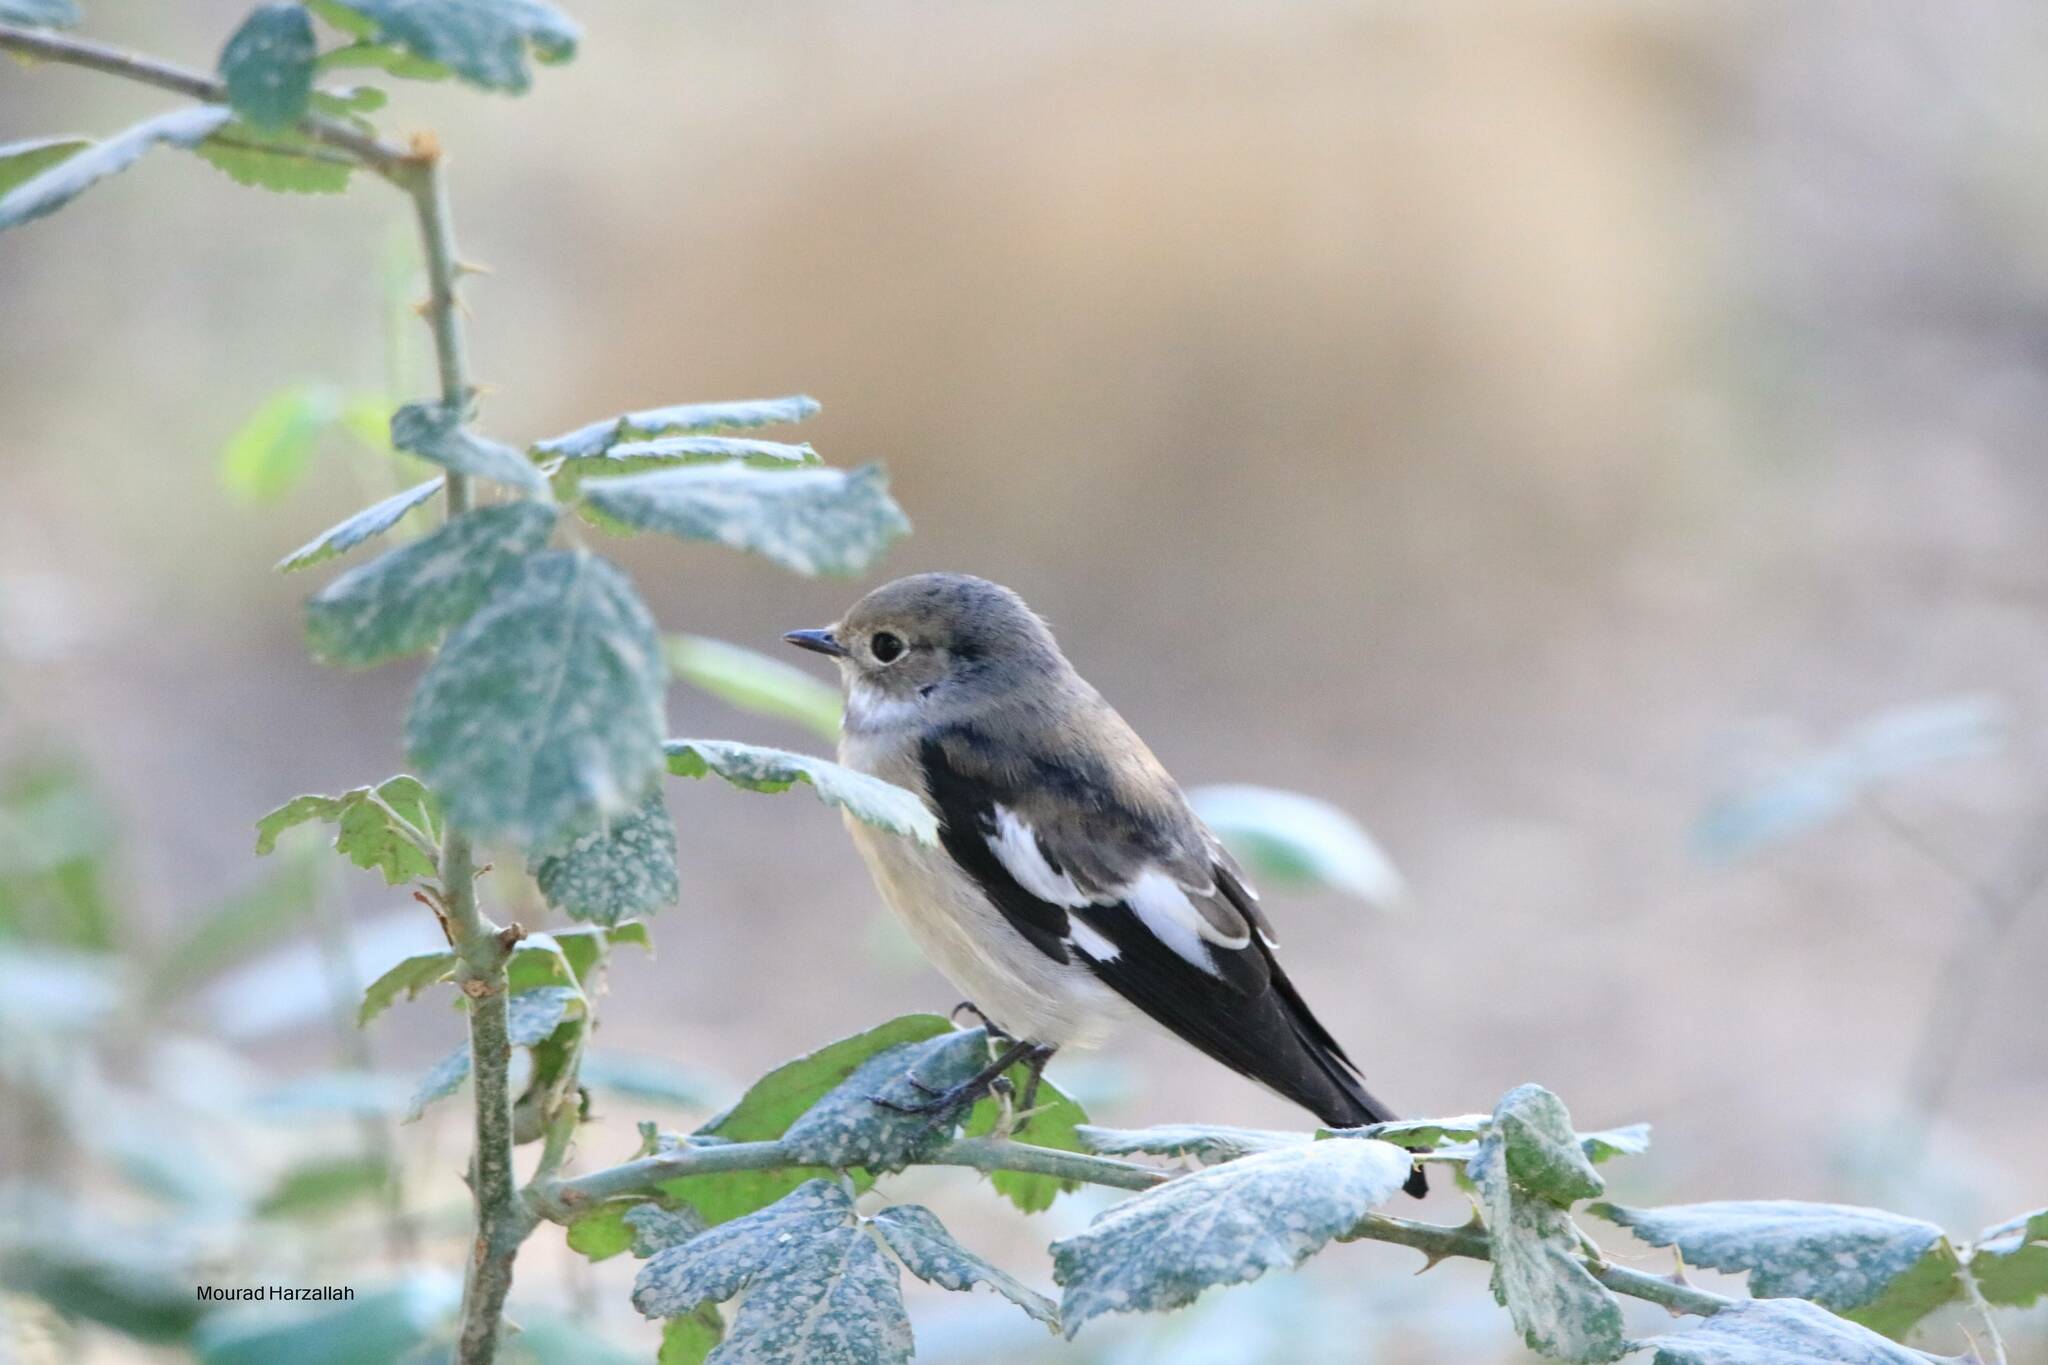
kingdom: Animalia
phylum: Chordata
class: Aves
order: Passeriformes
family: Muscicapidae
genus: Ficedula
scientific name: Ficedula speculigera
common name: Atlas pied flycatcher
